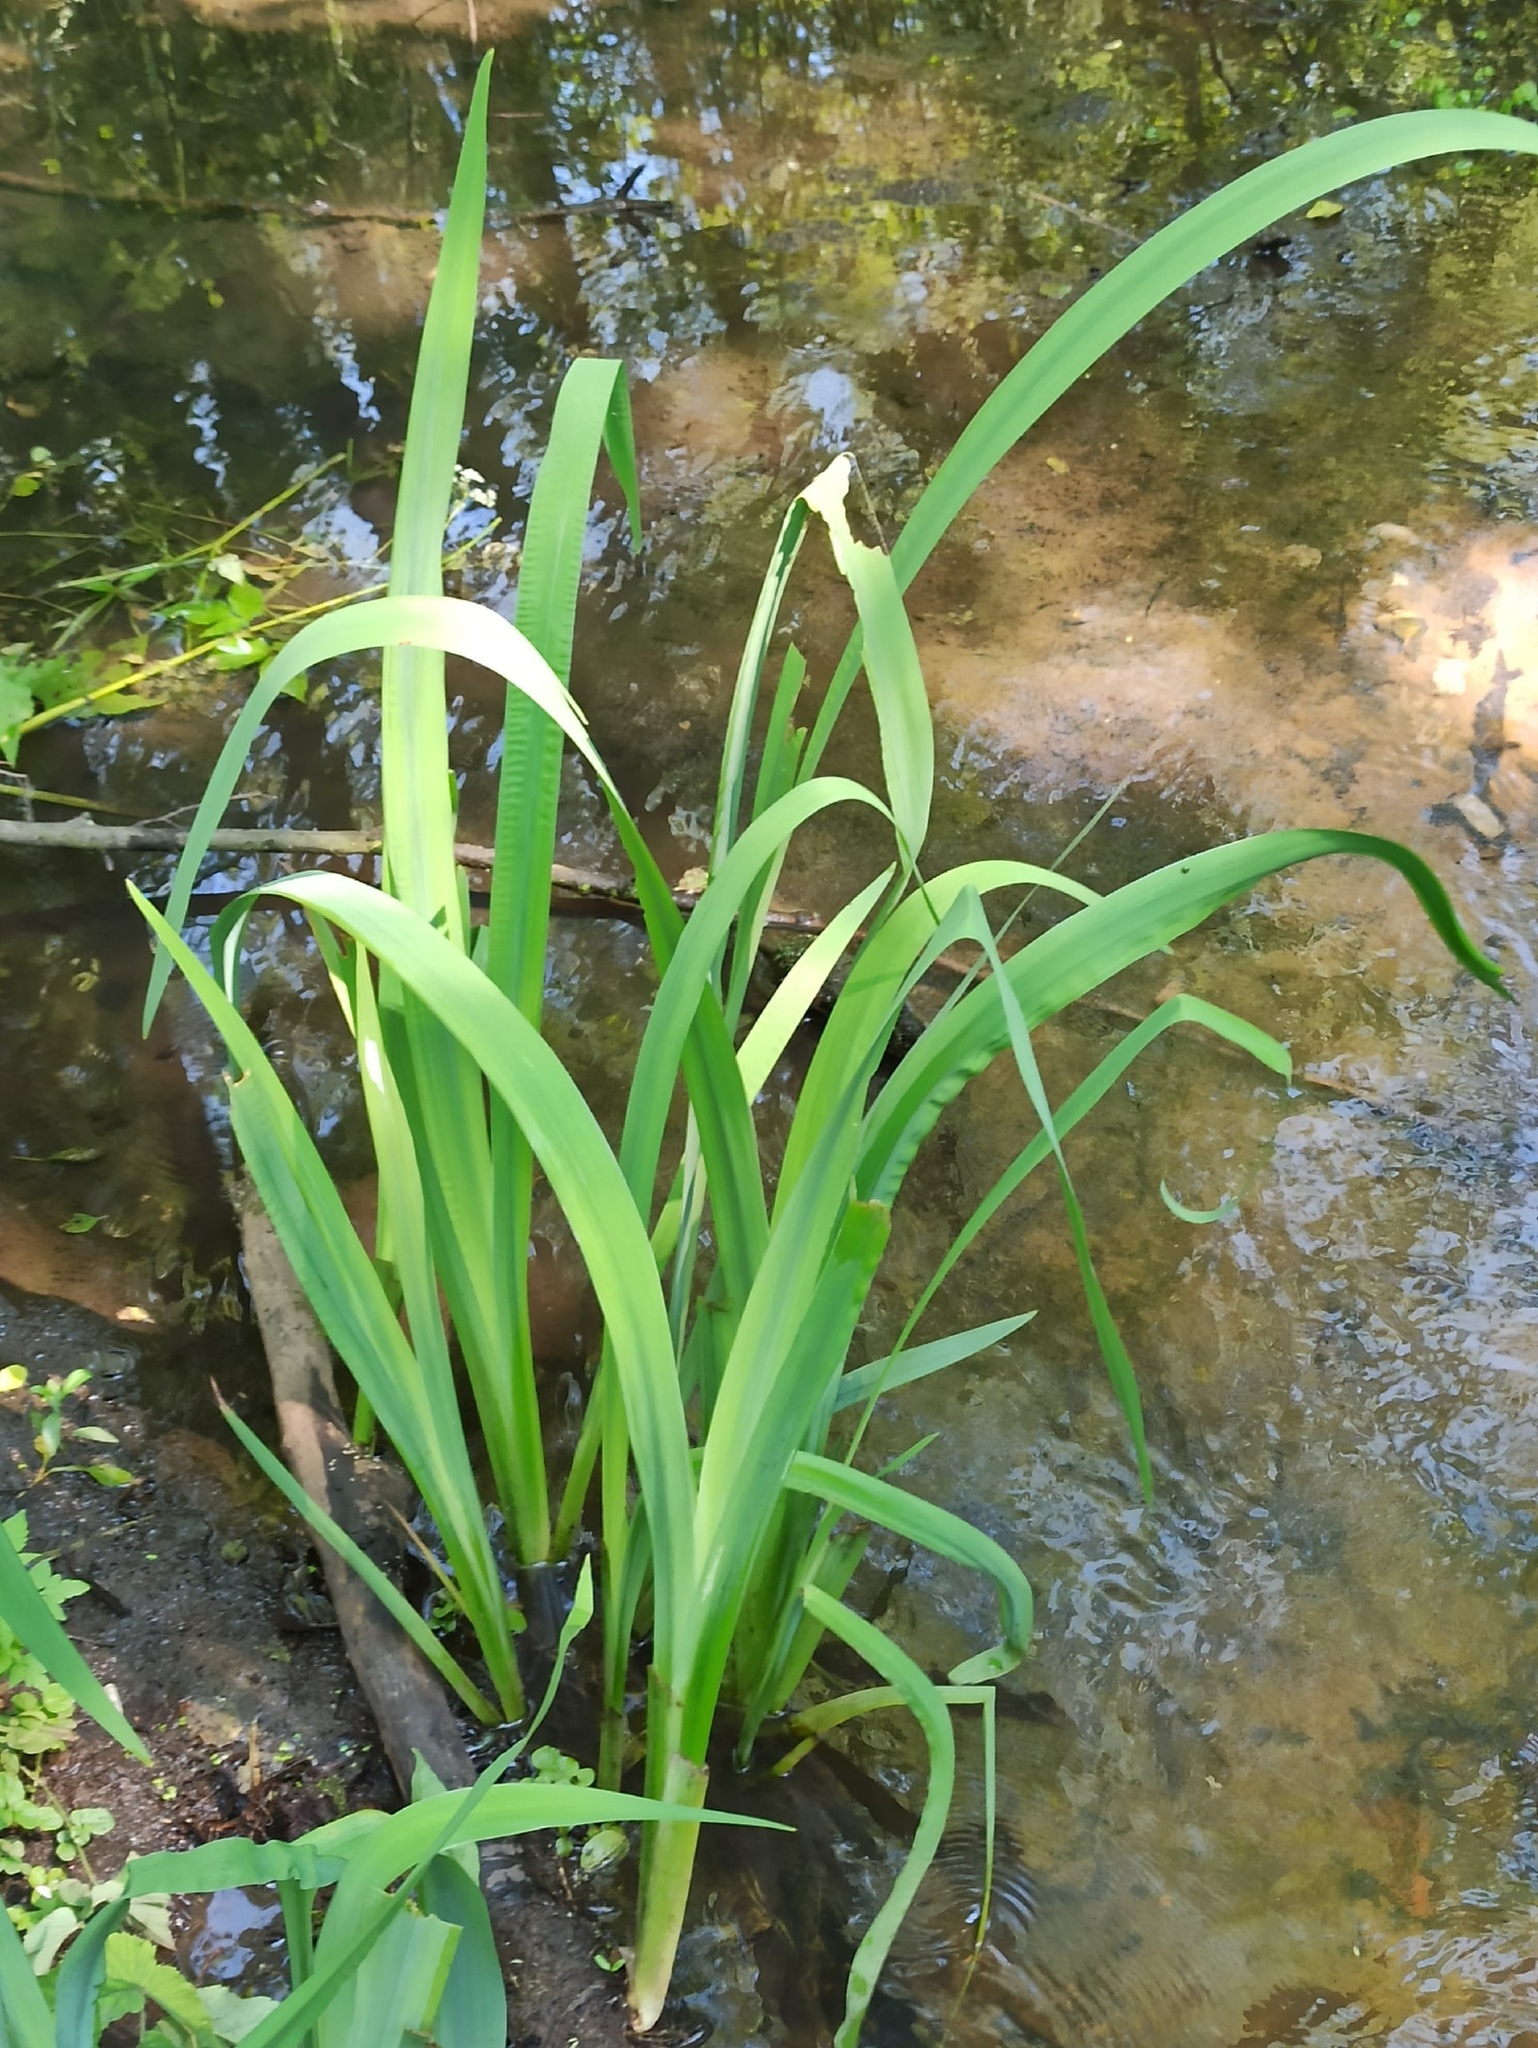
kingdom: Plantae
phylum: Tracheophyta
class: Liliopsida
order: Asparagales
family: Iridaceae
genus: Iris
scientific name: Iris pseudacorus
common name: Yellow flag
